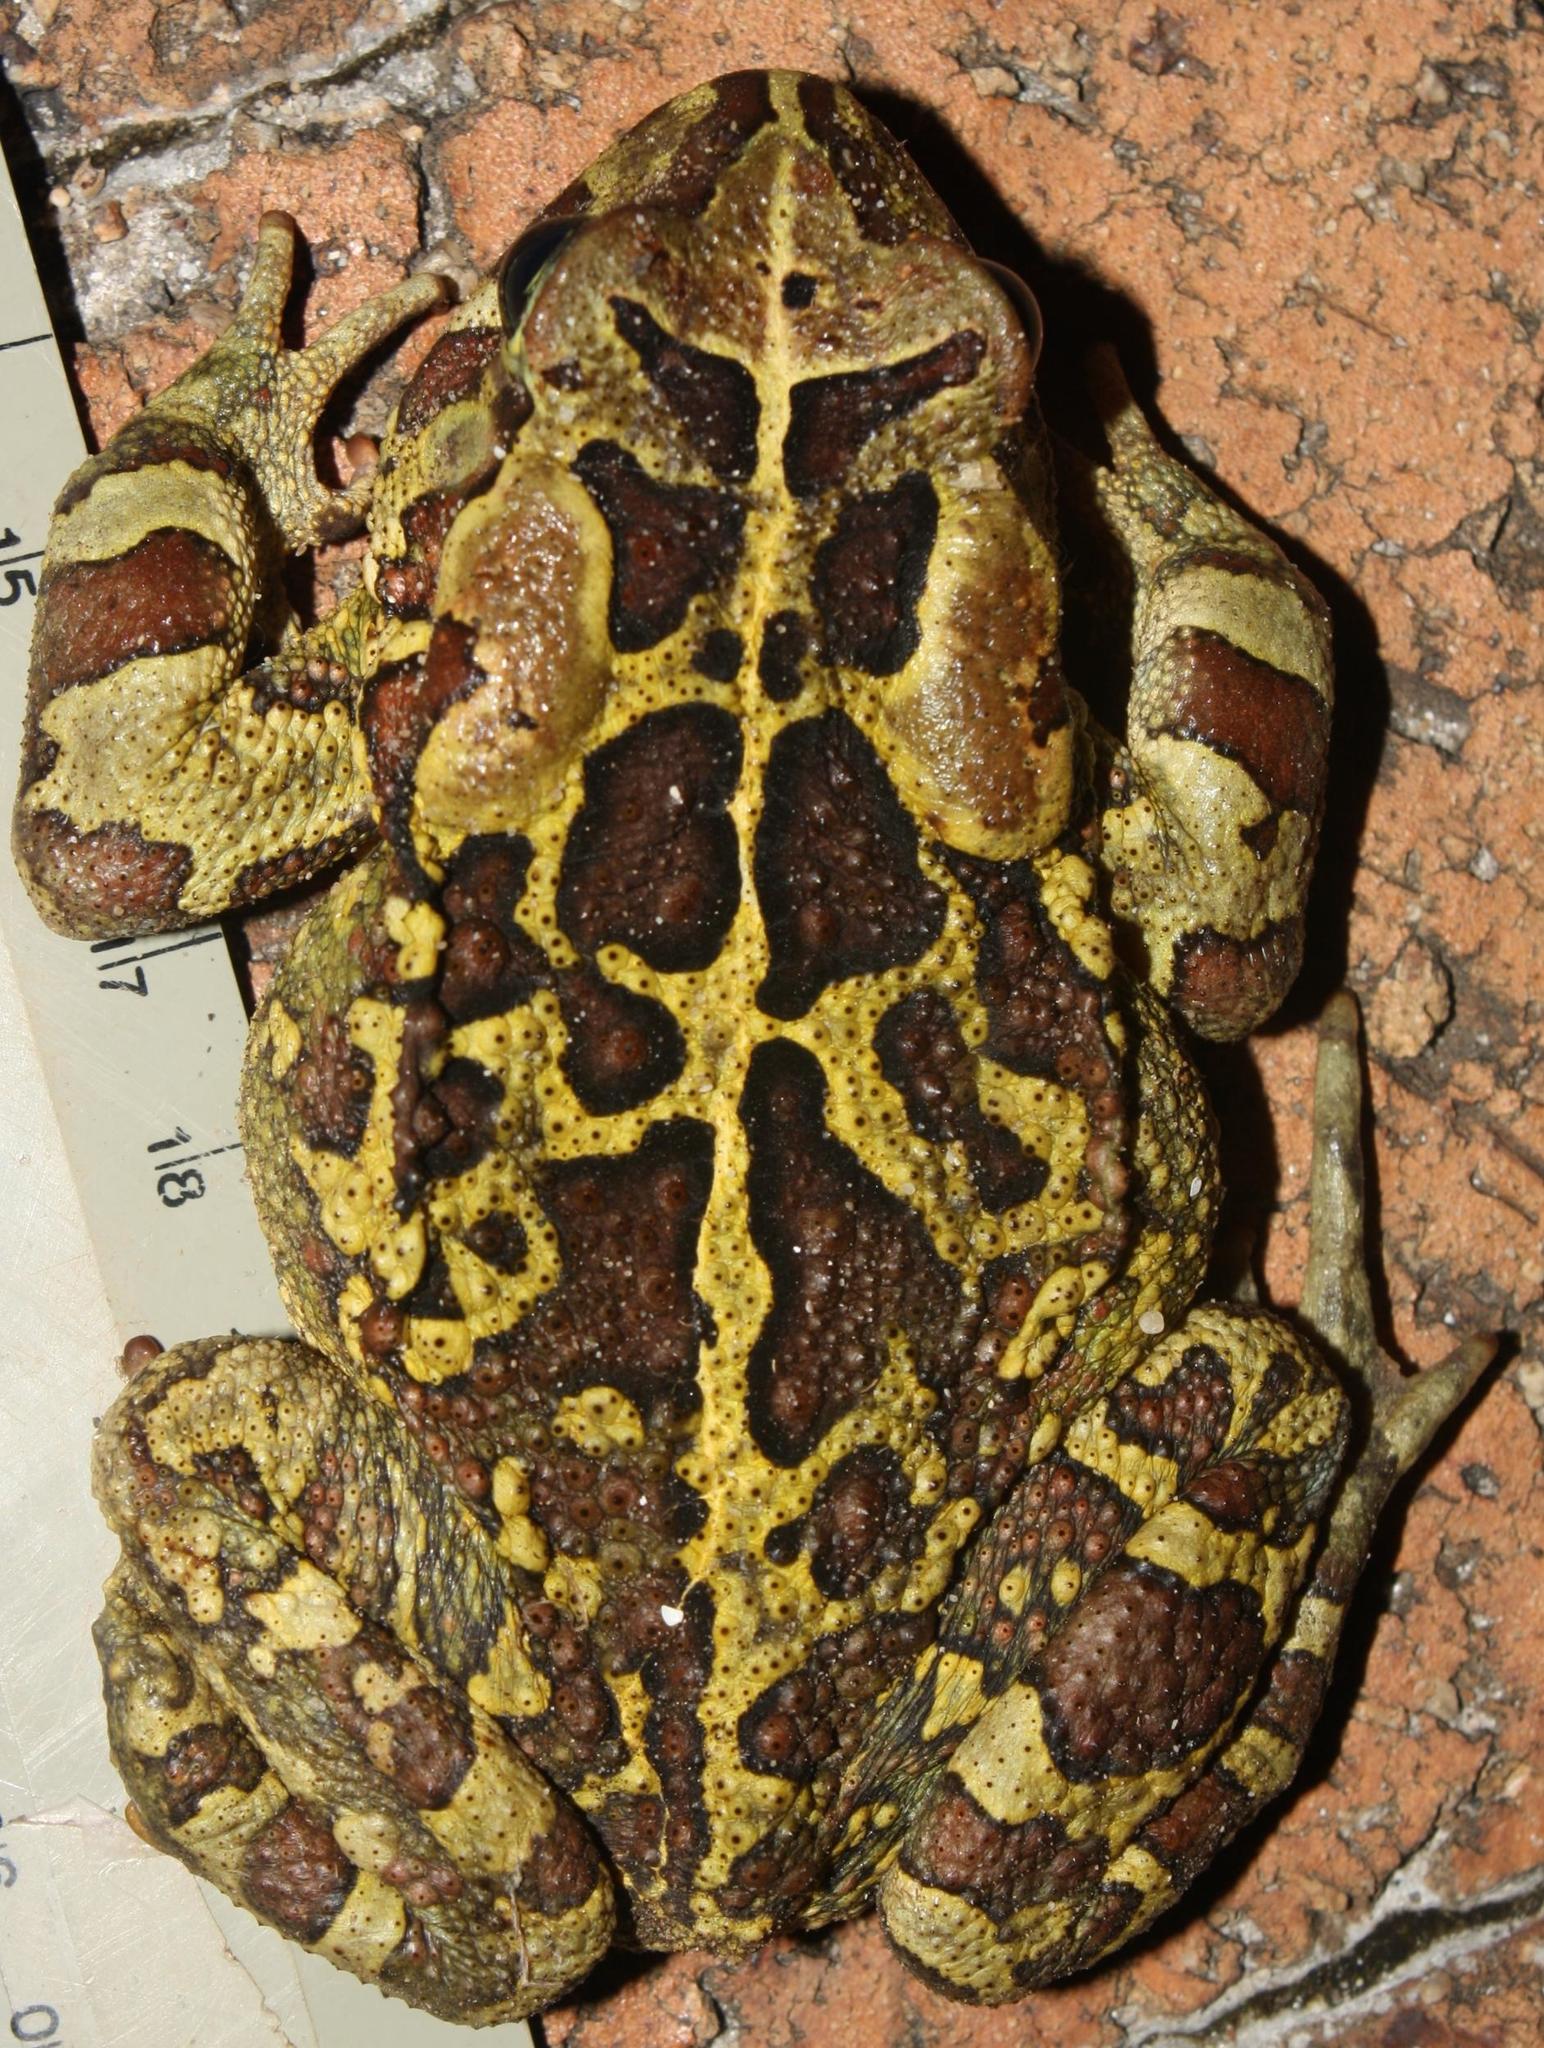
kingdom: Animalia
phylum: Chordata
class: Amphibia
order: Anura
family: Bufonidae
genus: Sclerophrys
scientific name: Sclerophrys pantherina
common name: Panther toad
